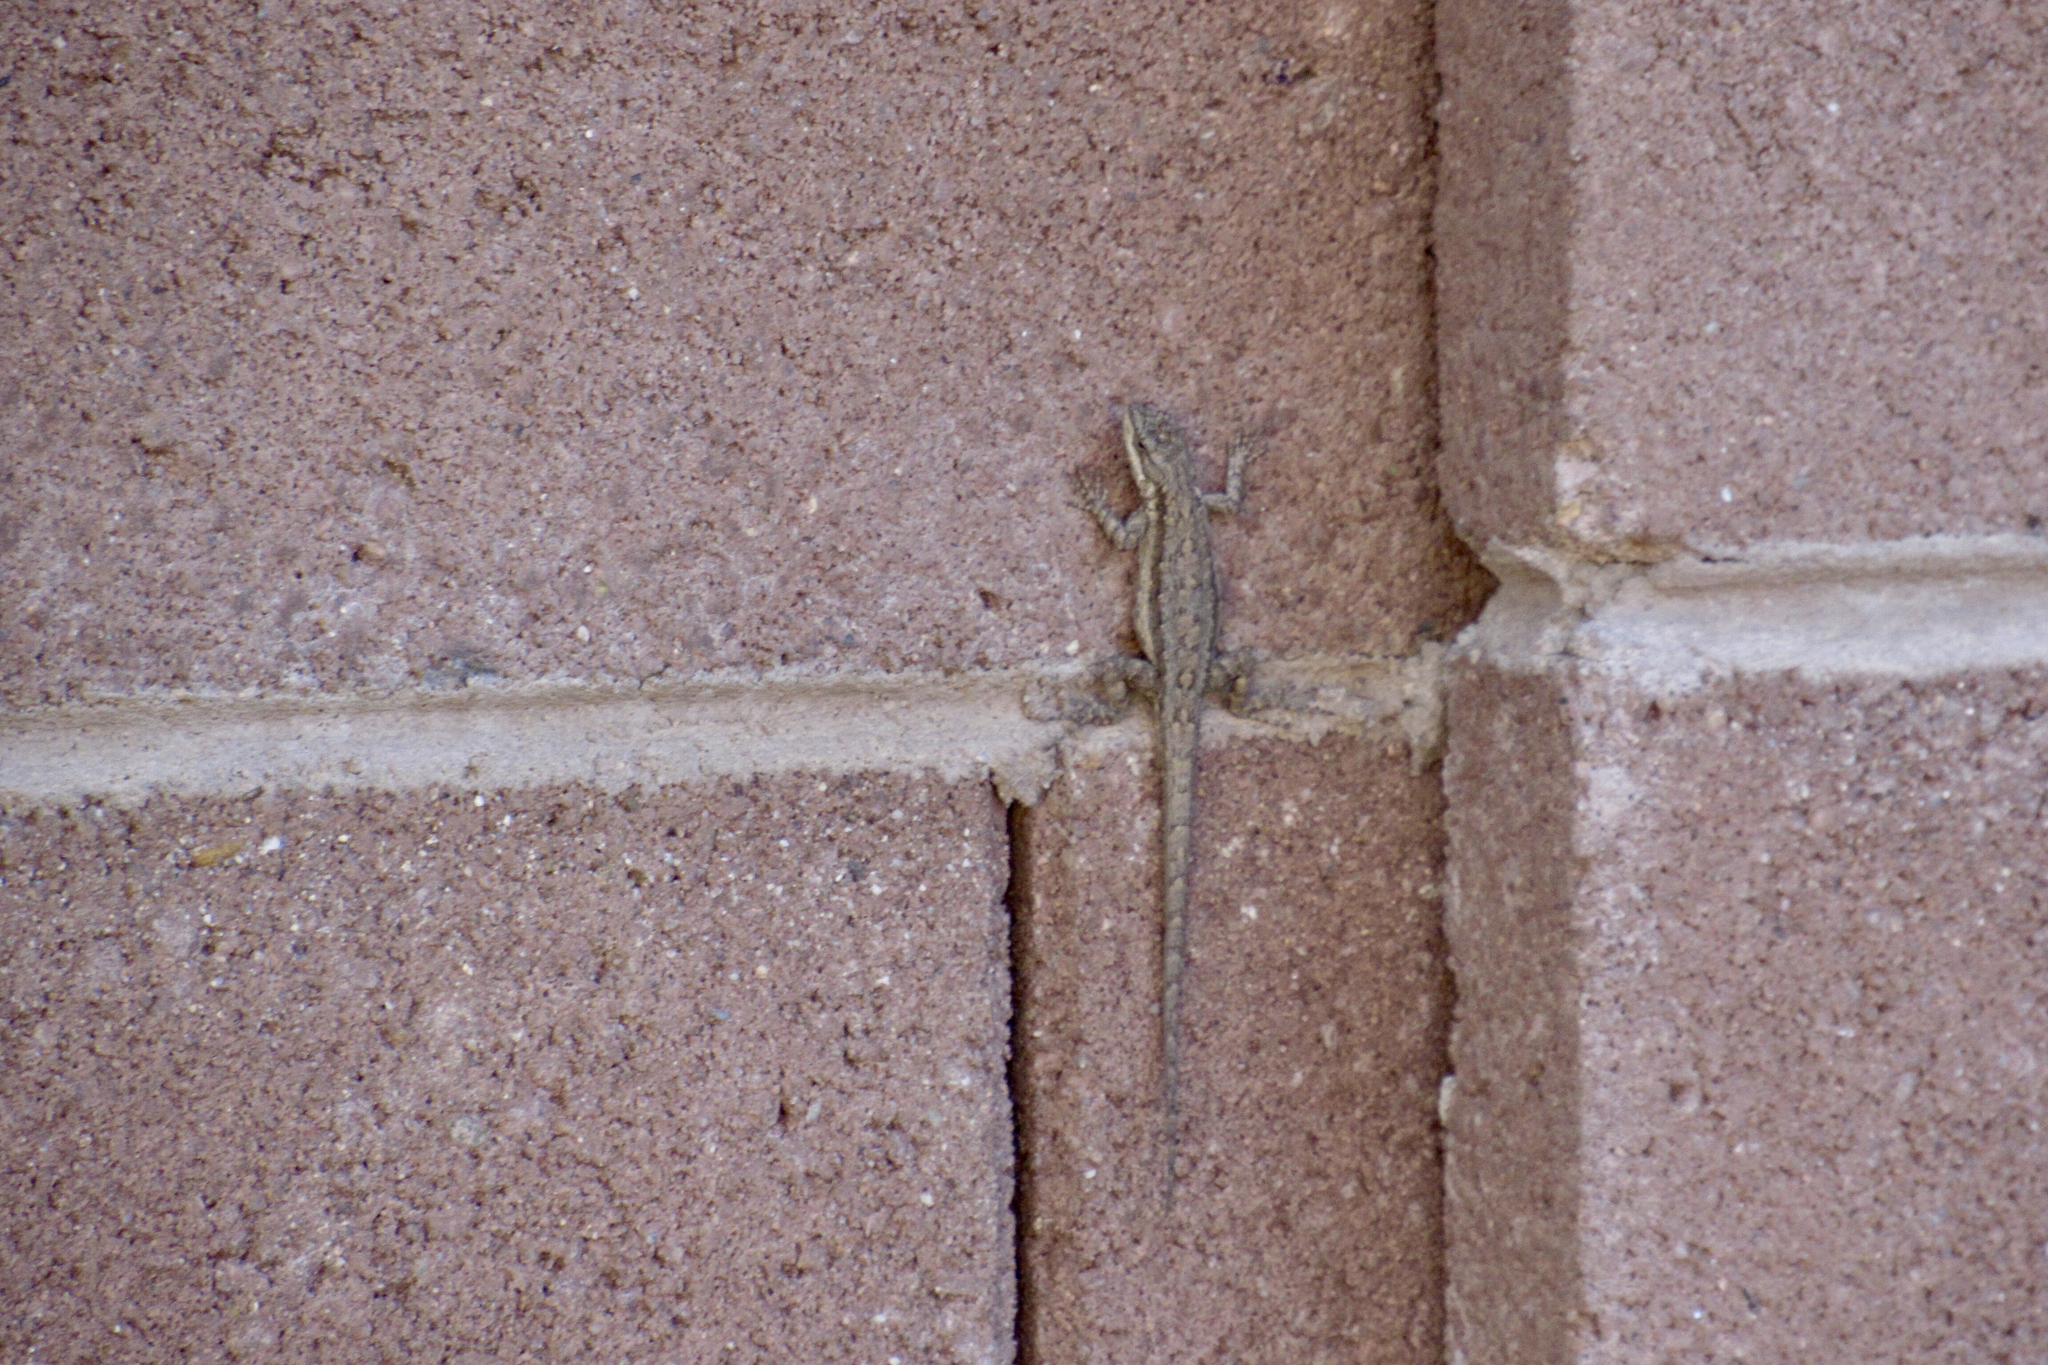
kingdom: Animalia
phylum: Chordata
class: Squamata
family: Phrynosomatidae
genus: Urosaurus
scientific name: Urosaurus ornatus
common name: Ornate tree lizard
